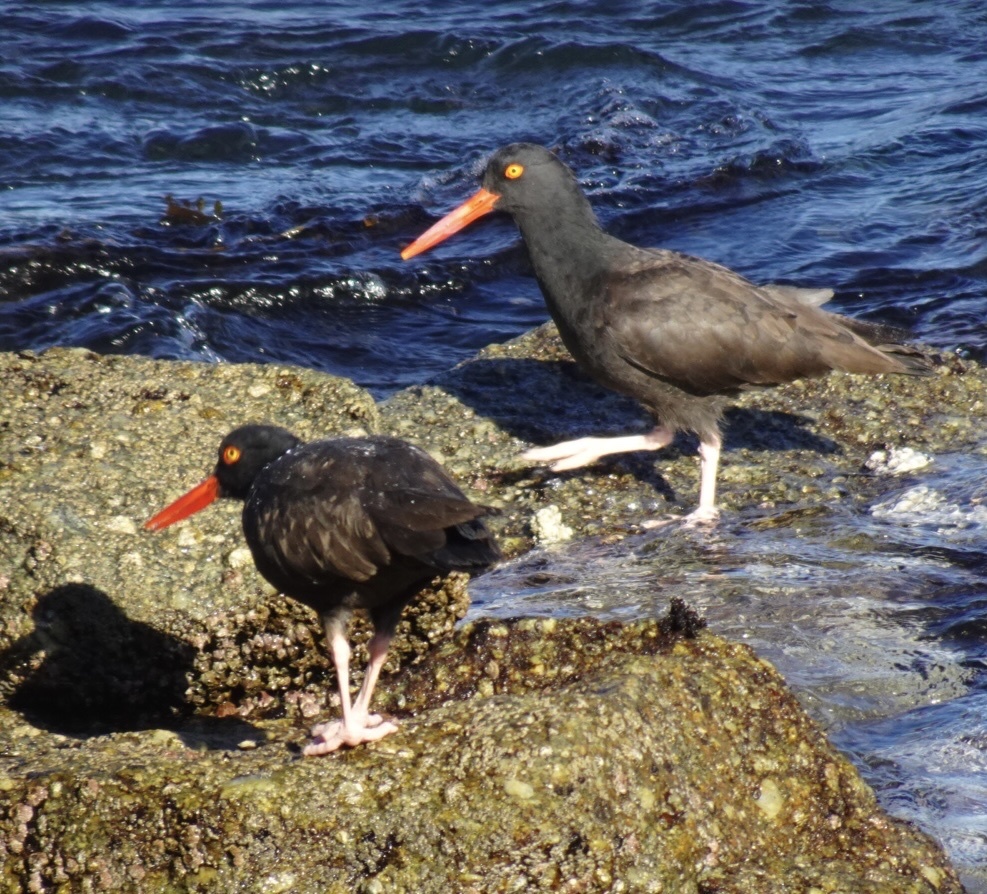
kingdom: Animalia
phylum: Chordata
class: Aves
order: Charadriiformes
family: Haematopodidae
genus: Haematopus
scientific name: Haematopus bachmani
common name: Black oystercatcher
